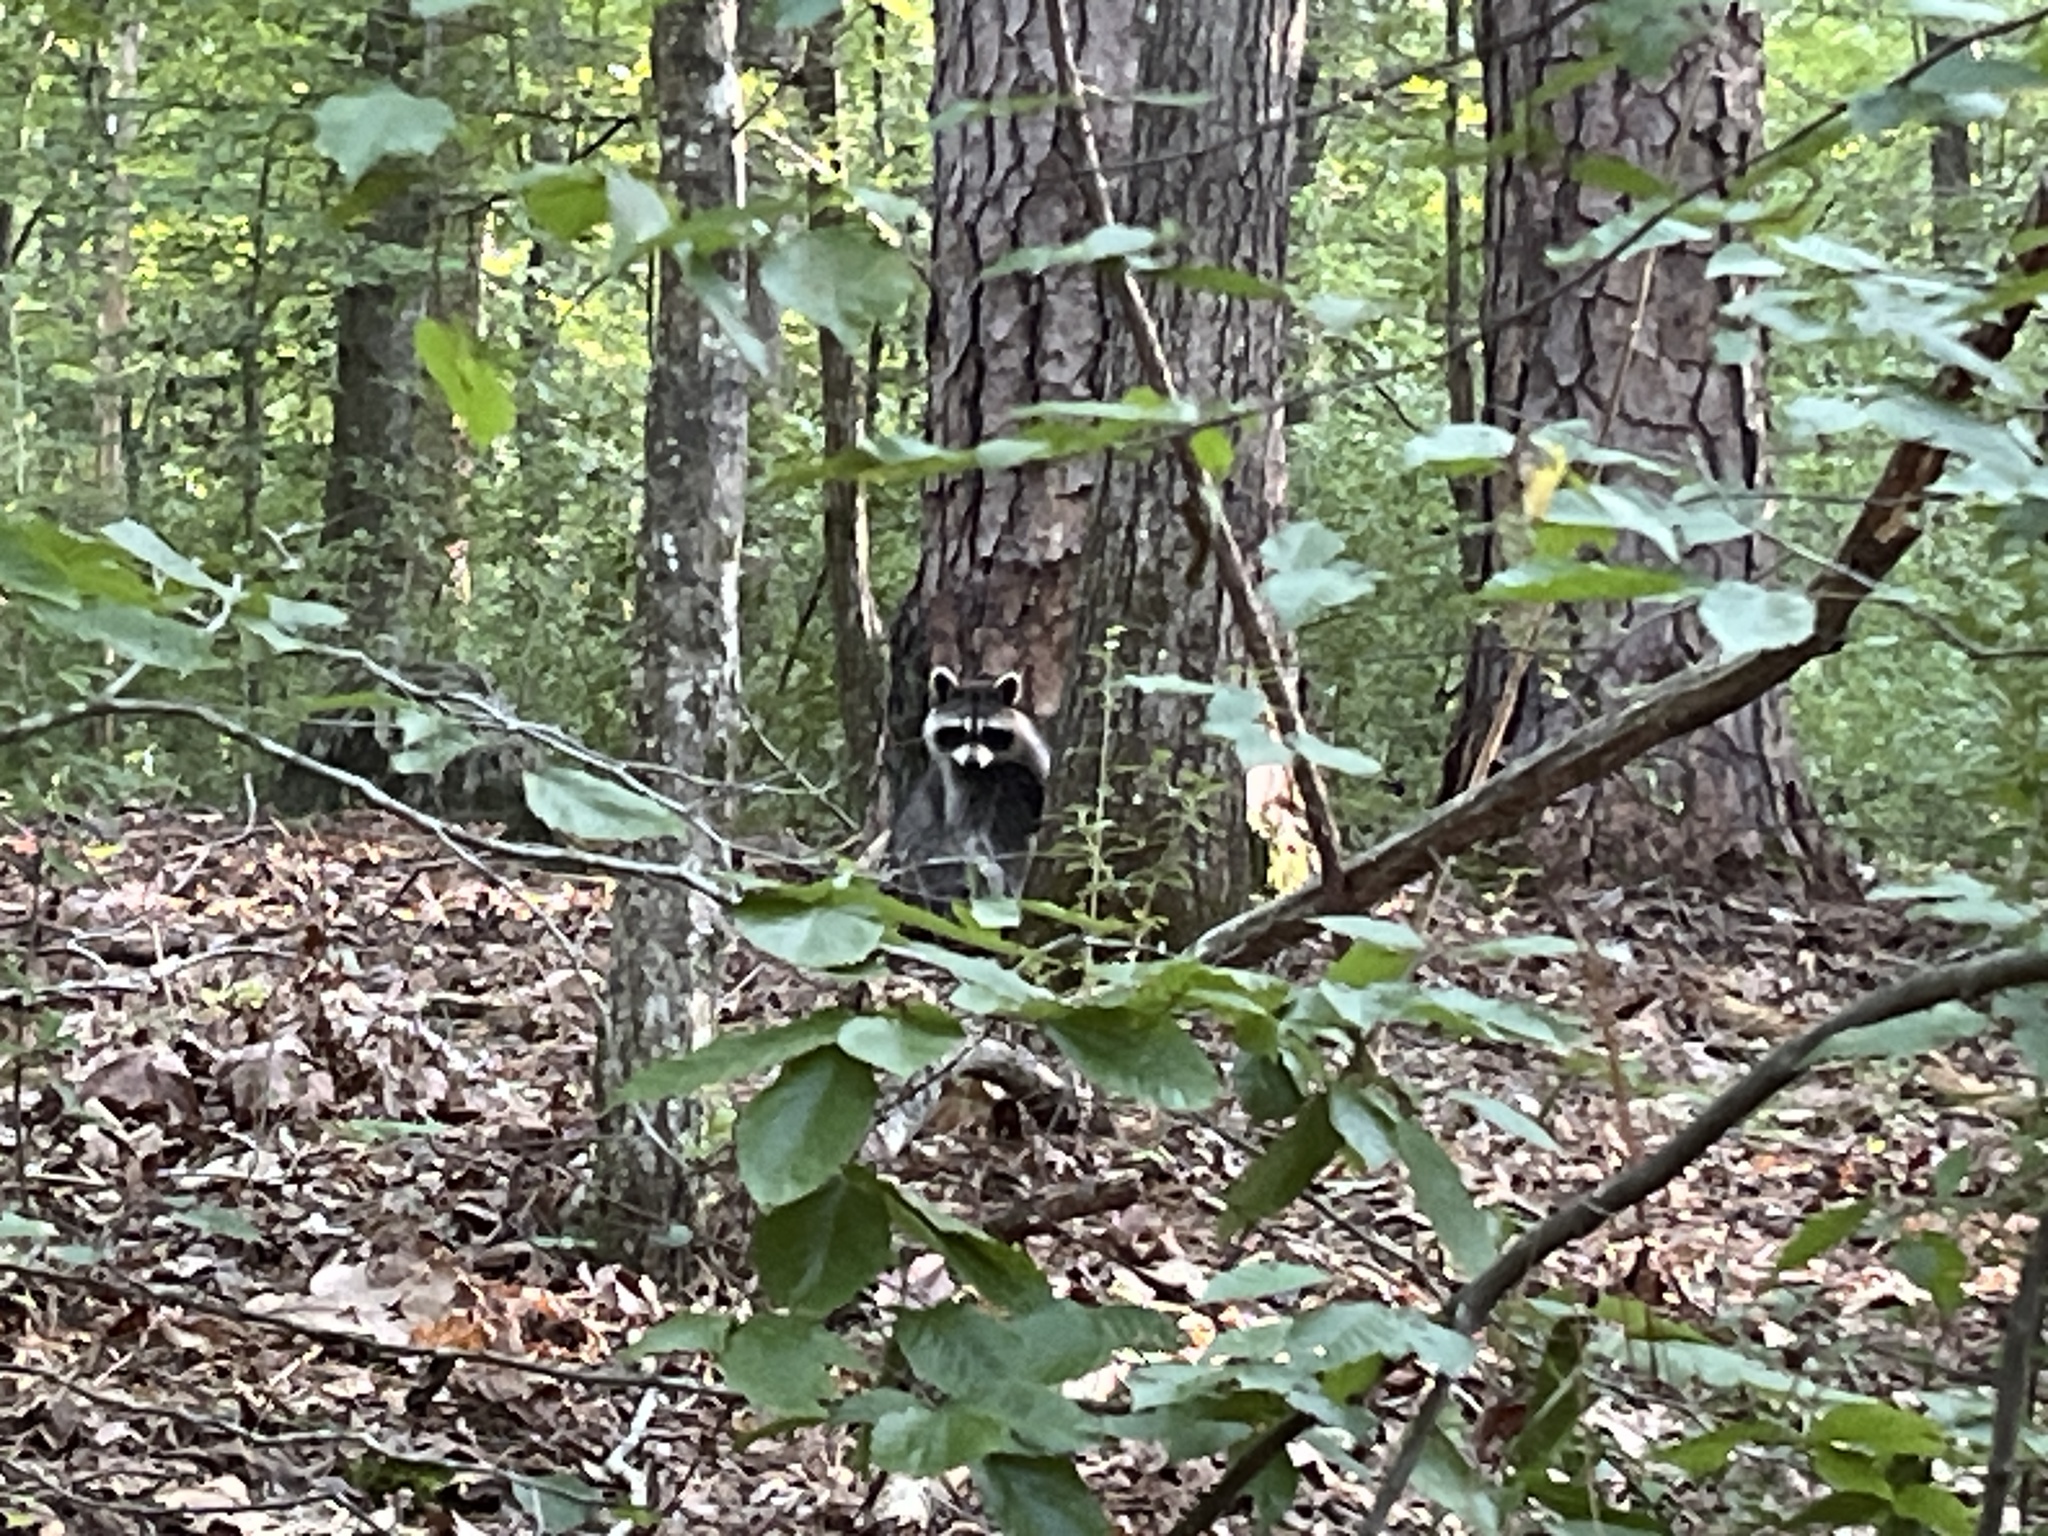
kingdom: Animalia
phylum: Chordata
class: Mammalia
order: Carnivora
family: Procyonidae
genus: Procyon
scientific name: Procyon lotor
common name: Raccoon
